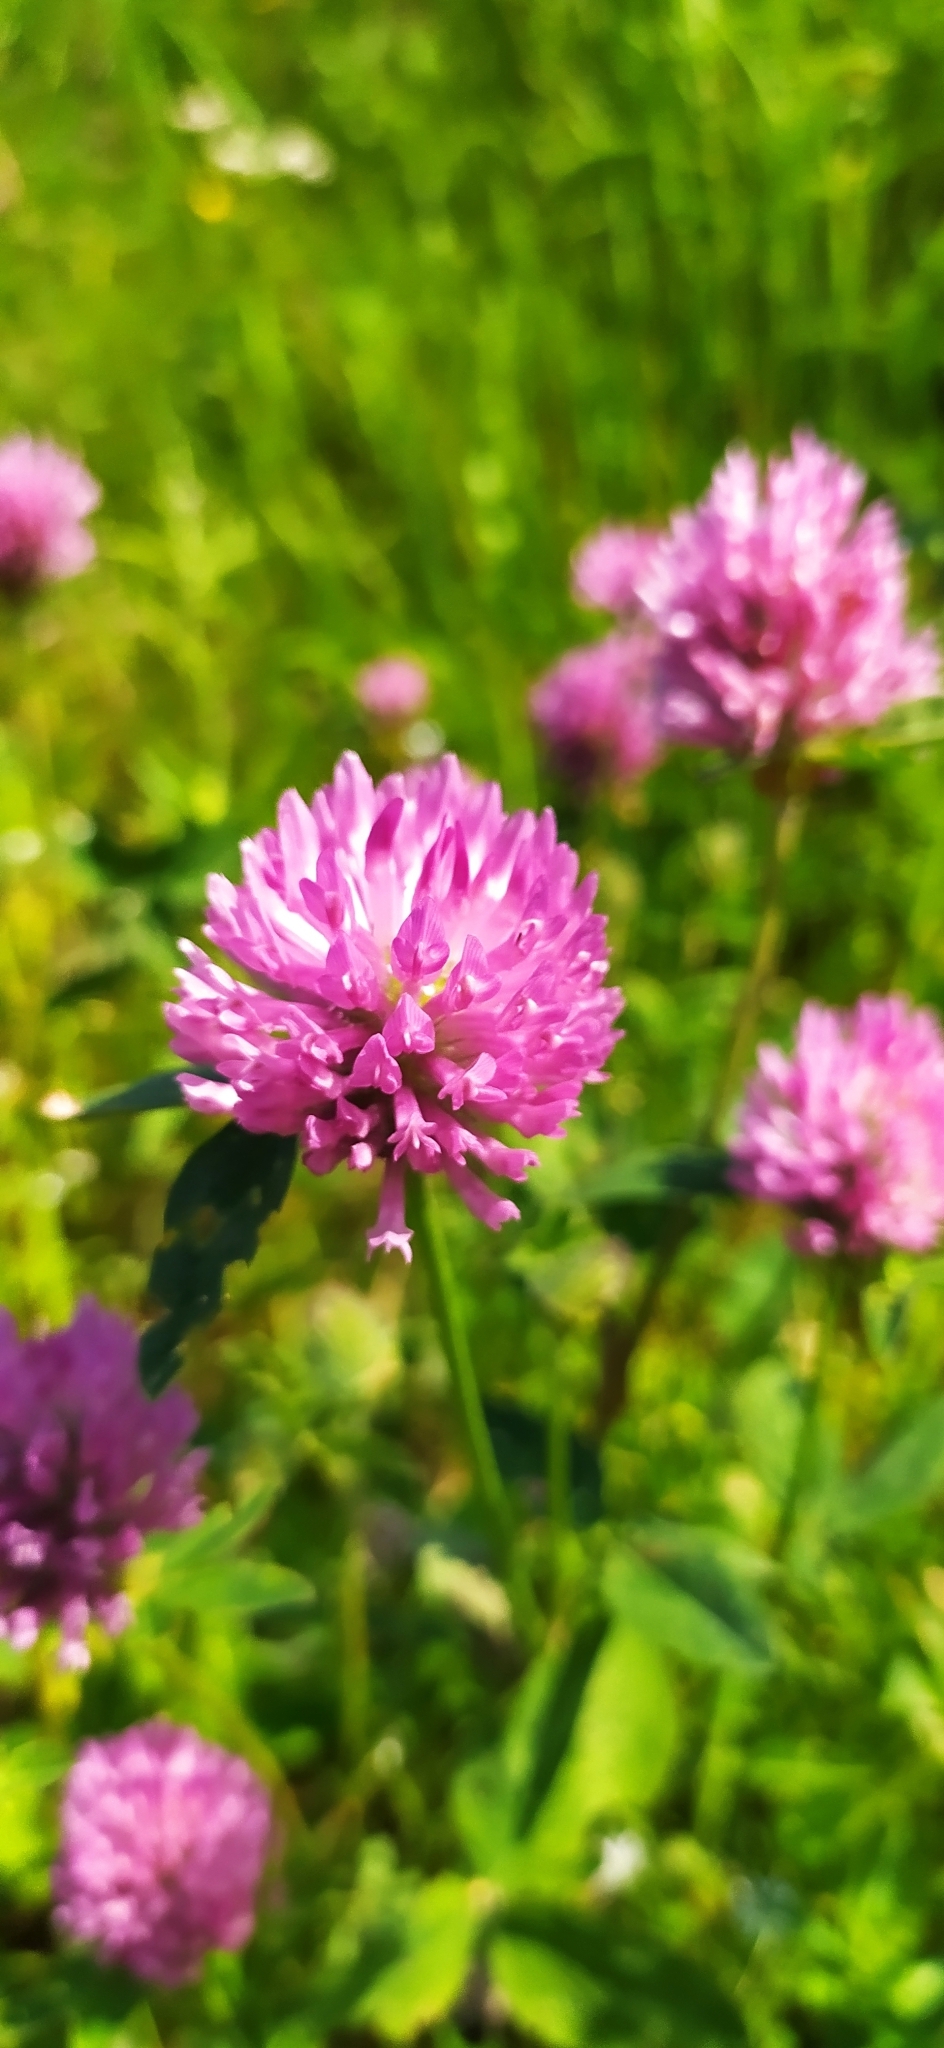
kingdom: Plantae
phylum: Tracheophyta
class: Magnoliopsida
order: Fabales
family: Fabaceae
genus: Trifolium
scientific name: Trifolium pratense
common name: Red clover
